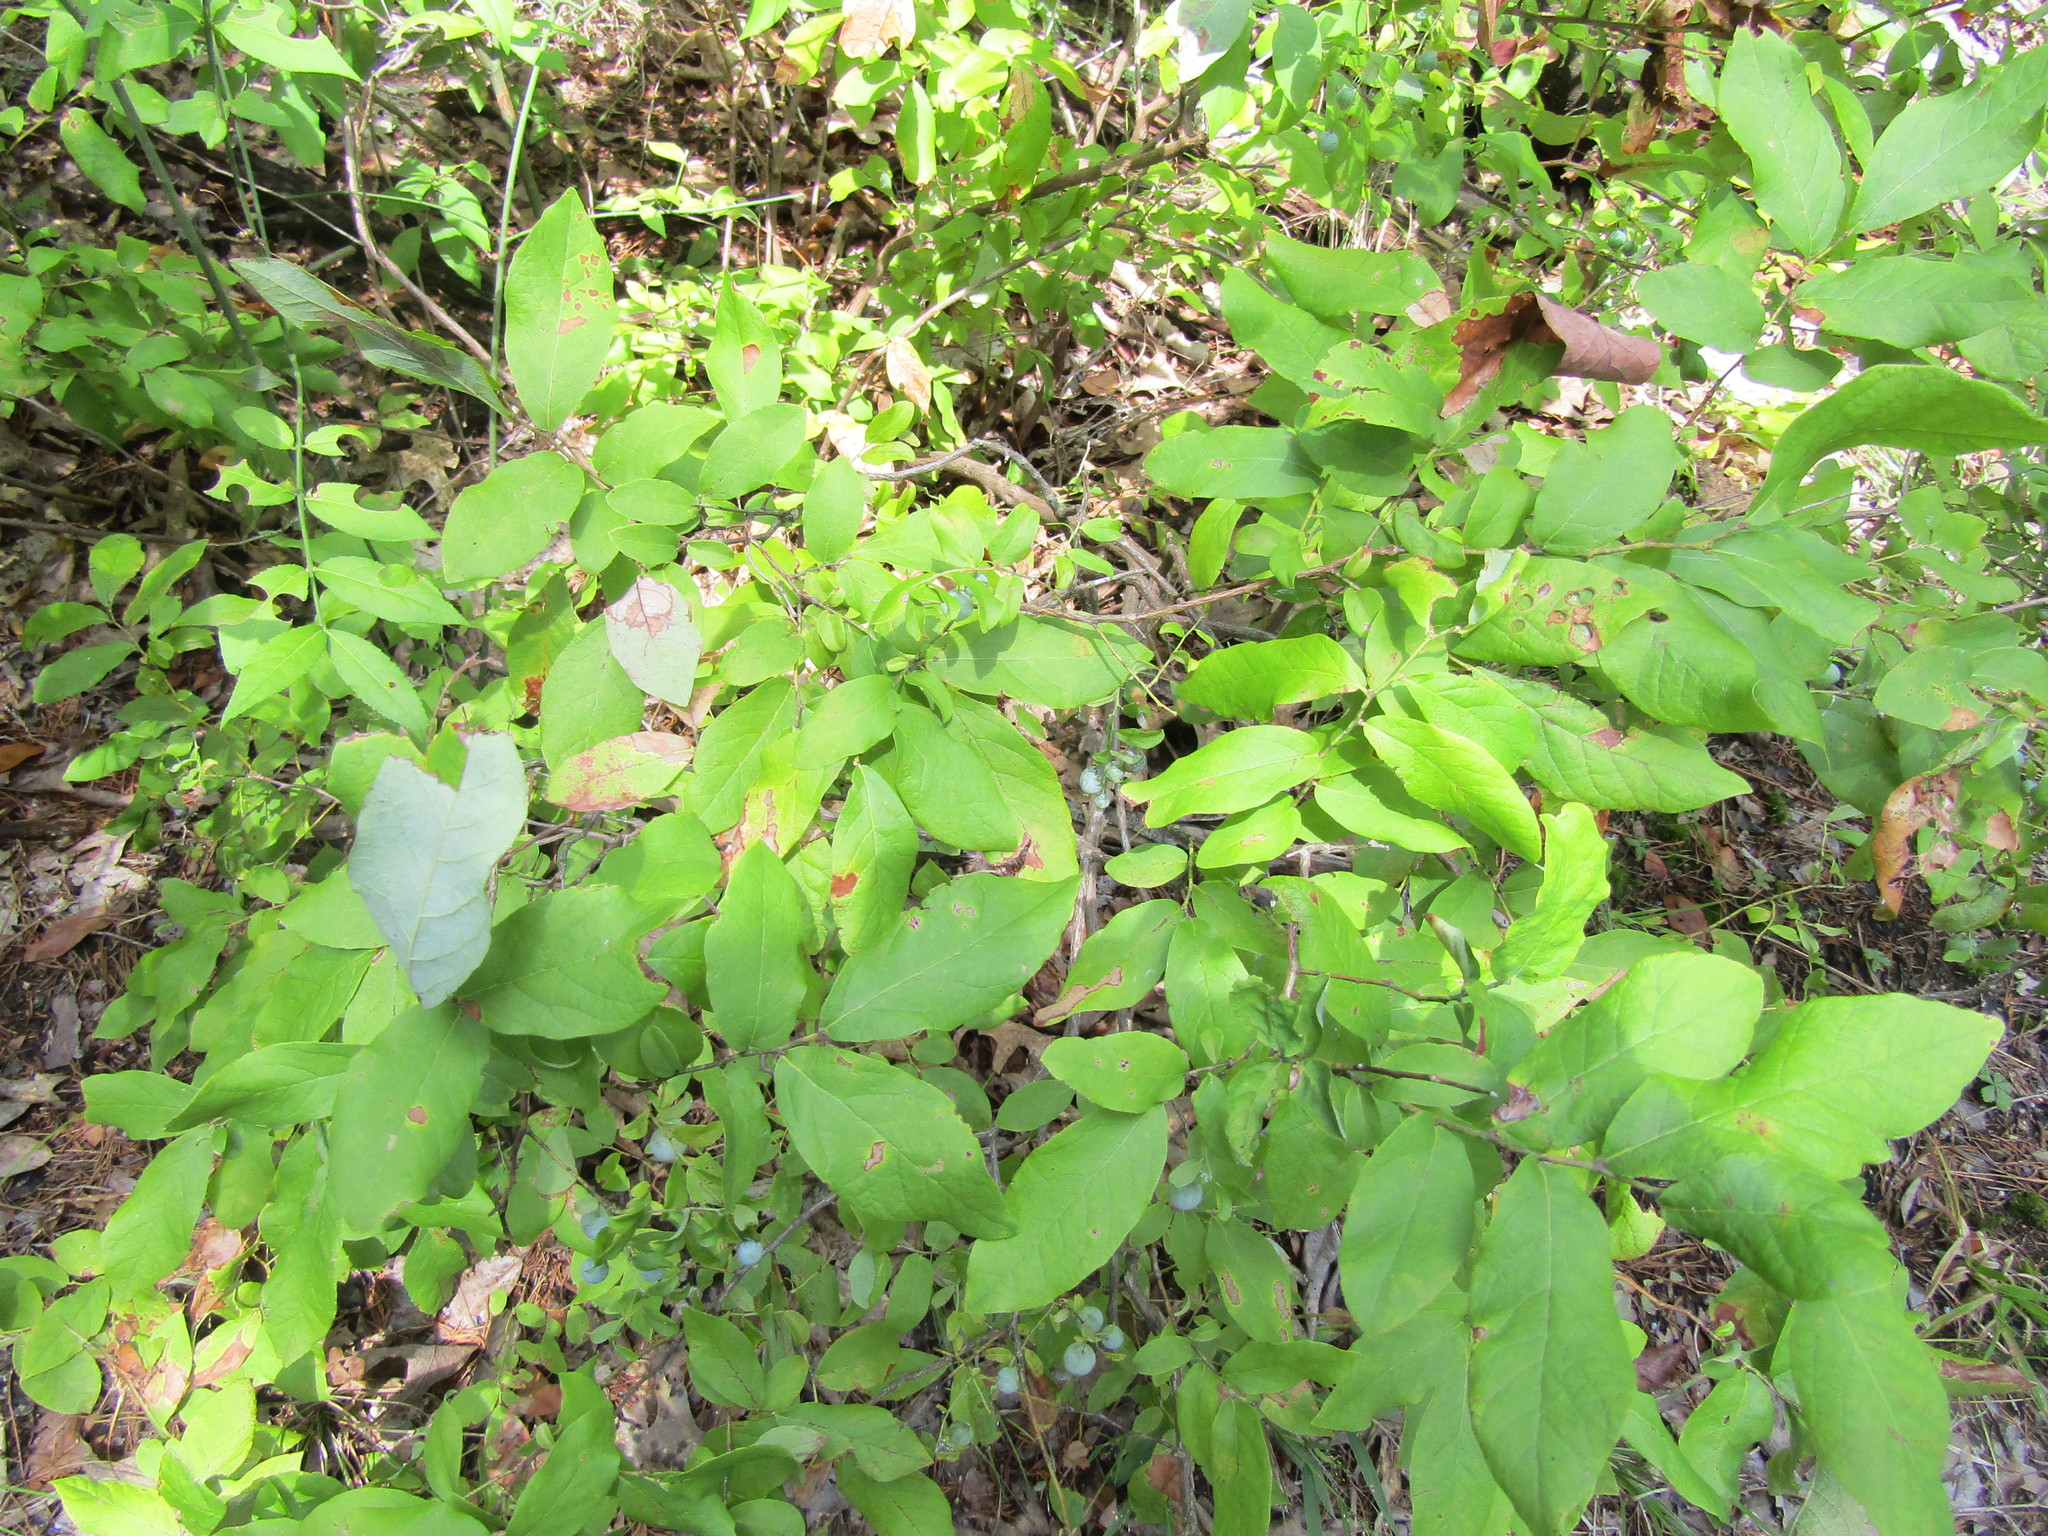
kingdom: Plantae
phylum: Tracheophyta
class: Magnoliopsida
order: Ericales
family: Ericaceae
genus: Vaccinium
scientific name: Vaccinium stamineum
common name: Deerberry
